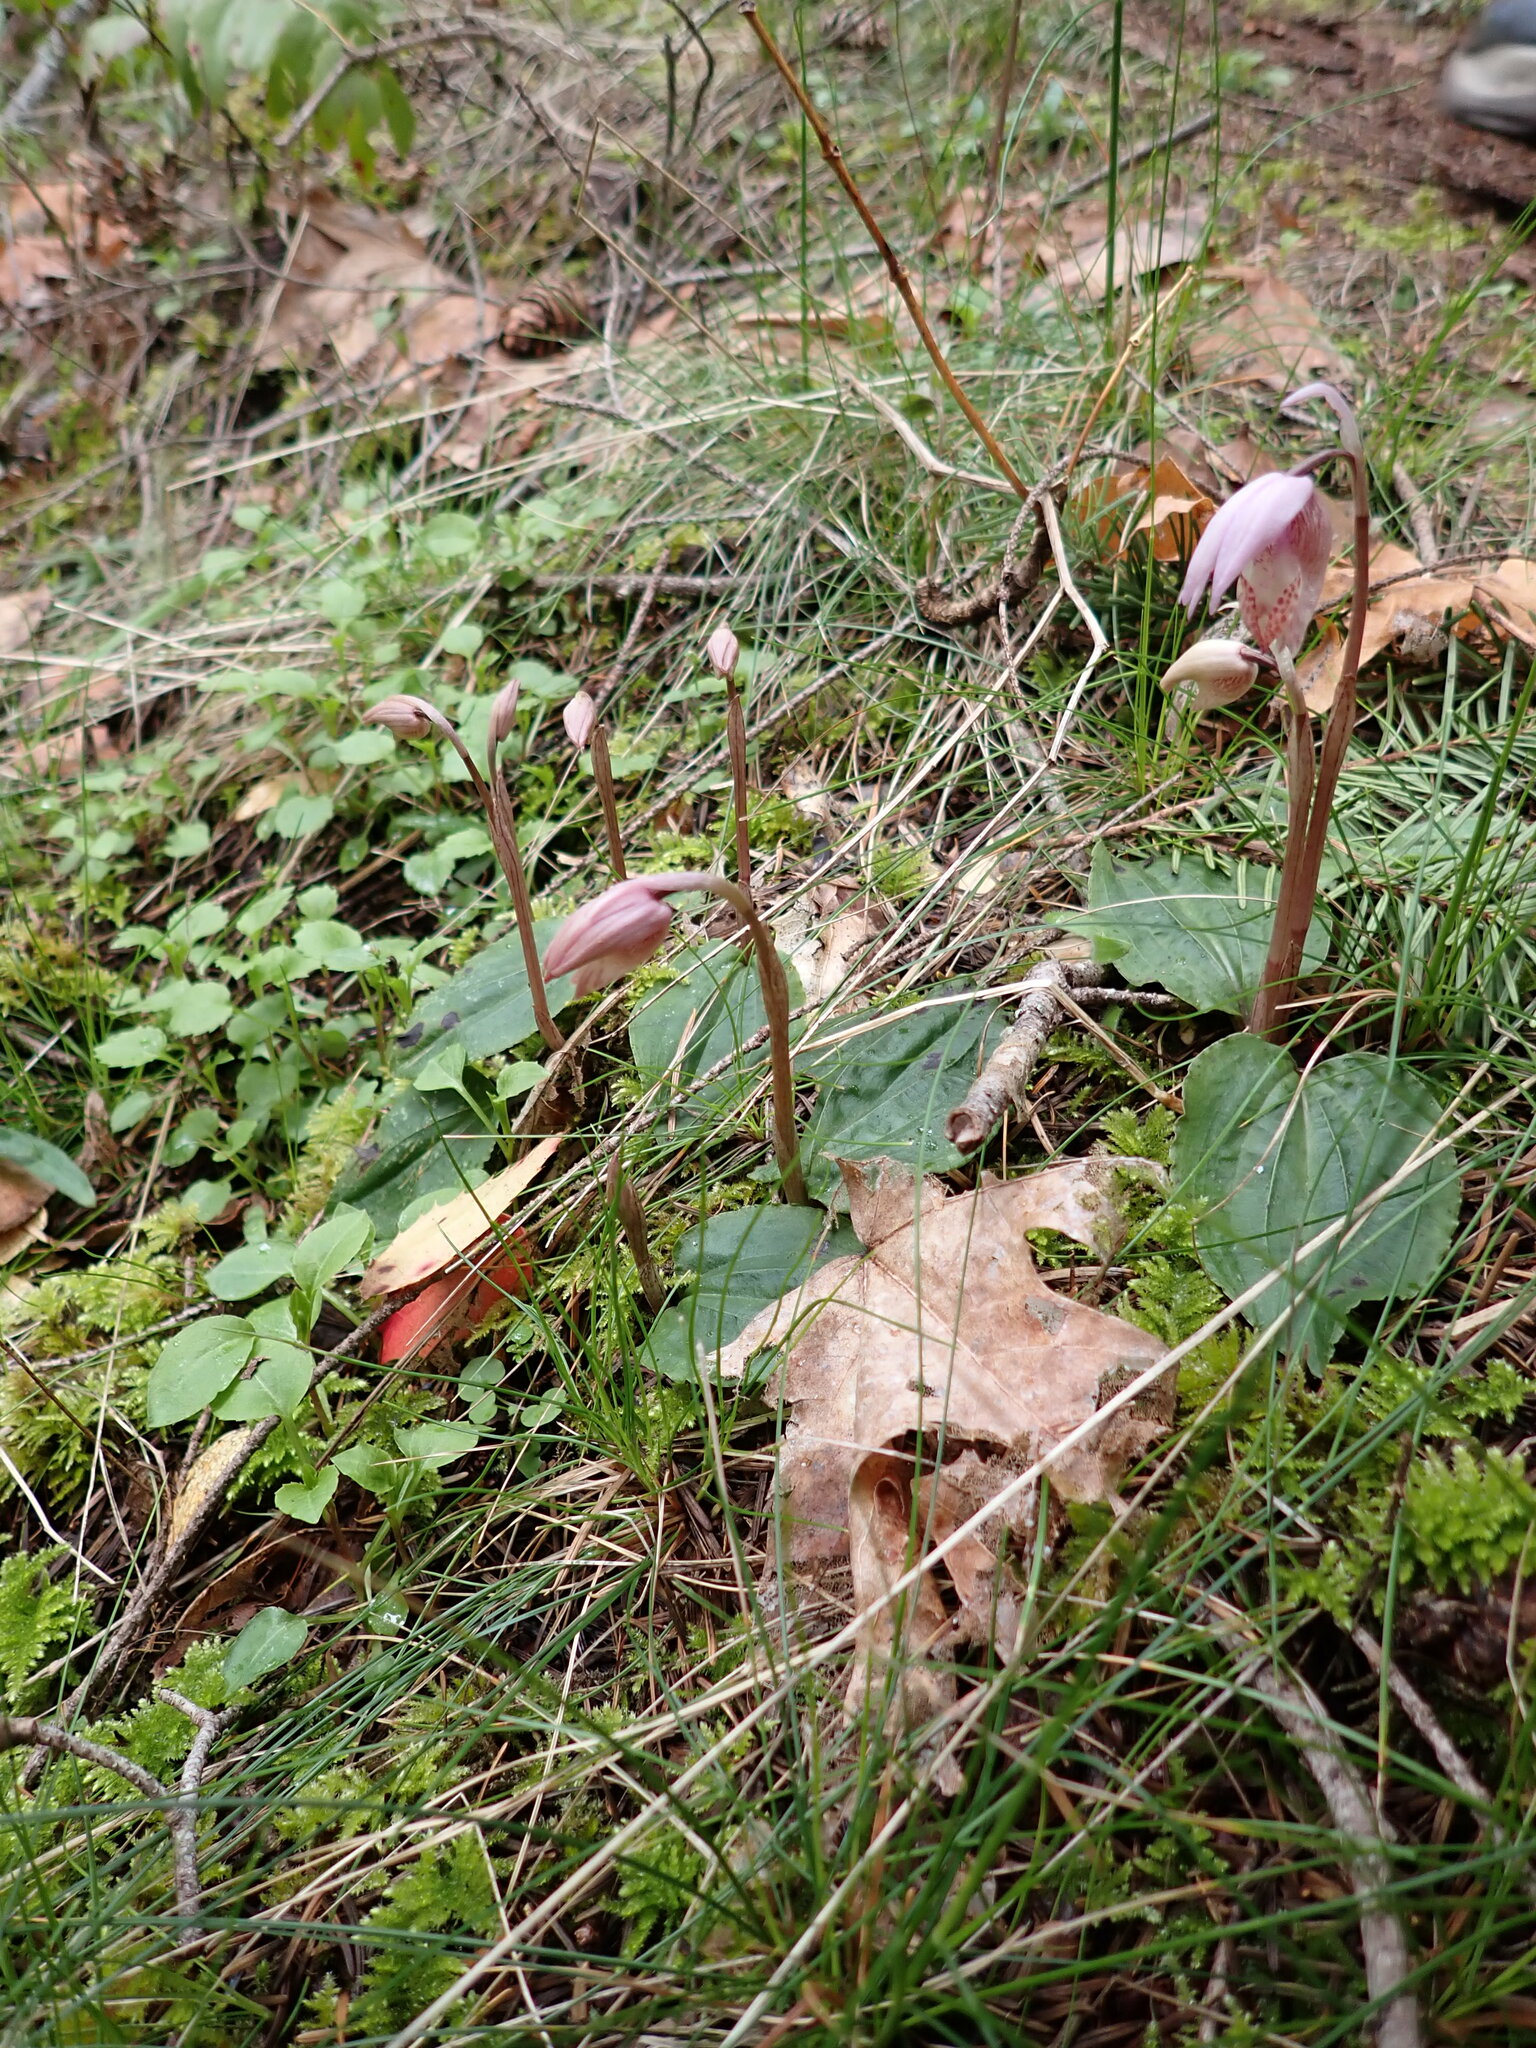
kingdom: Plantae
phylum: Tracheophyta
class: Liliopsida
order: Asparagales
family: Orchidaceae
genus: Calypso
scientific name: Calypso bulbosa
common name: Calypso
